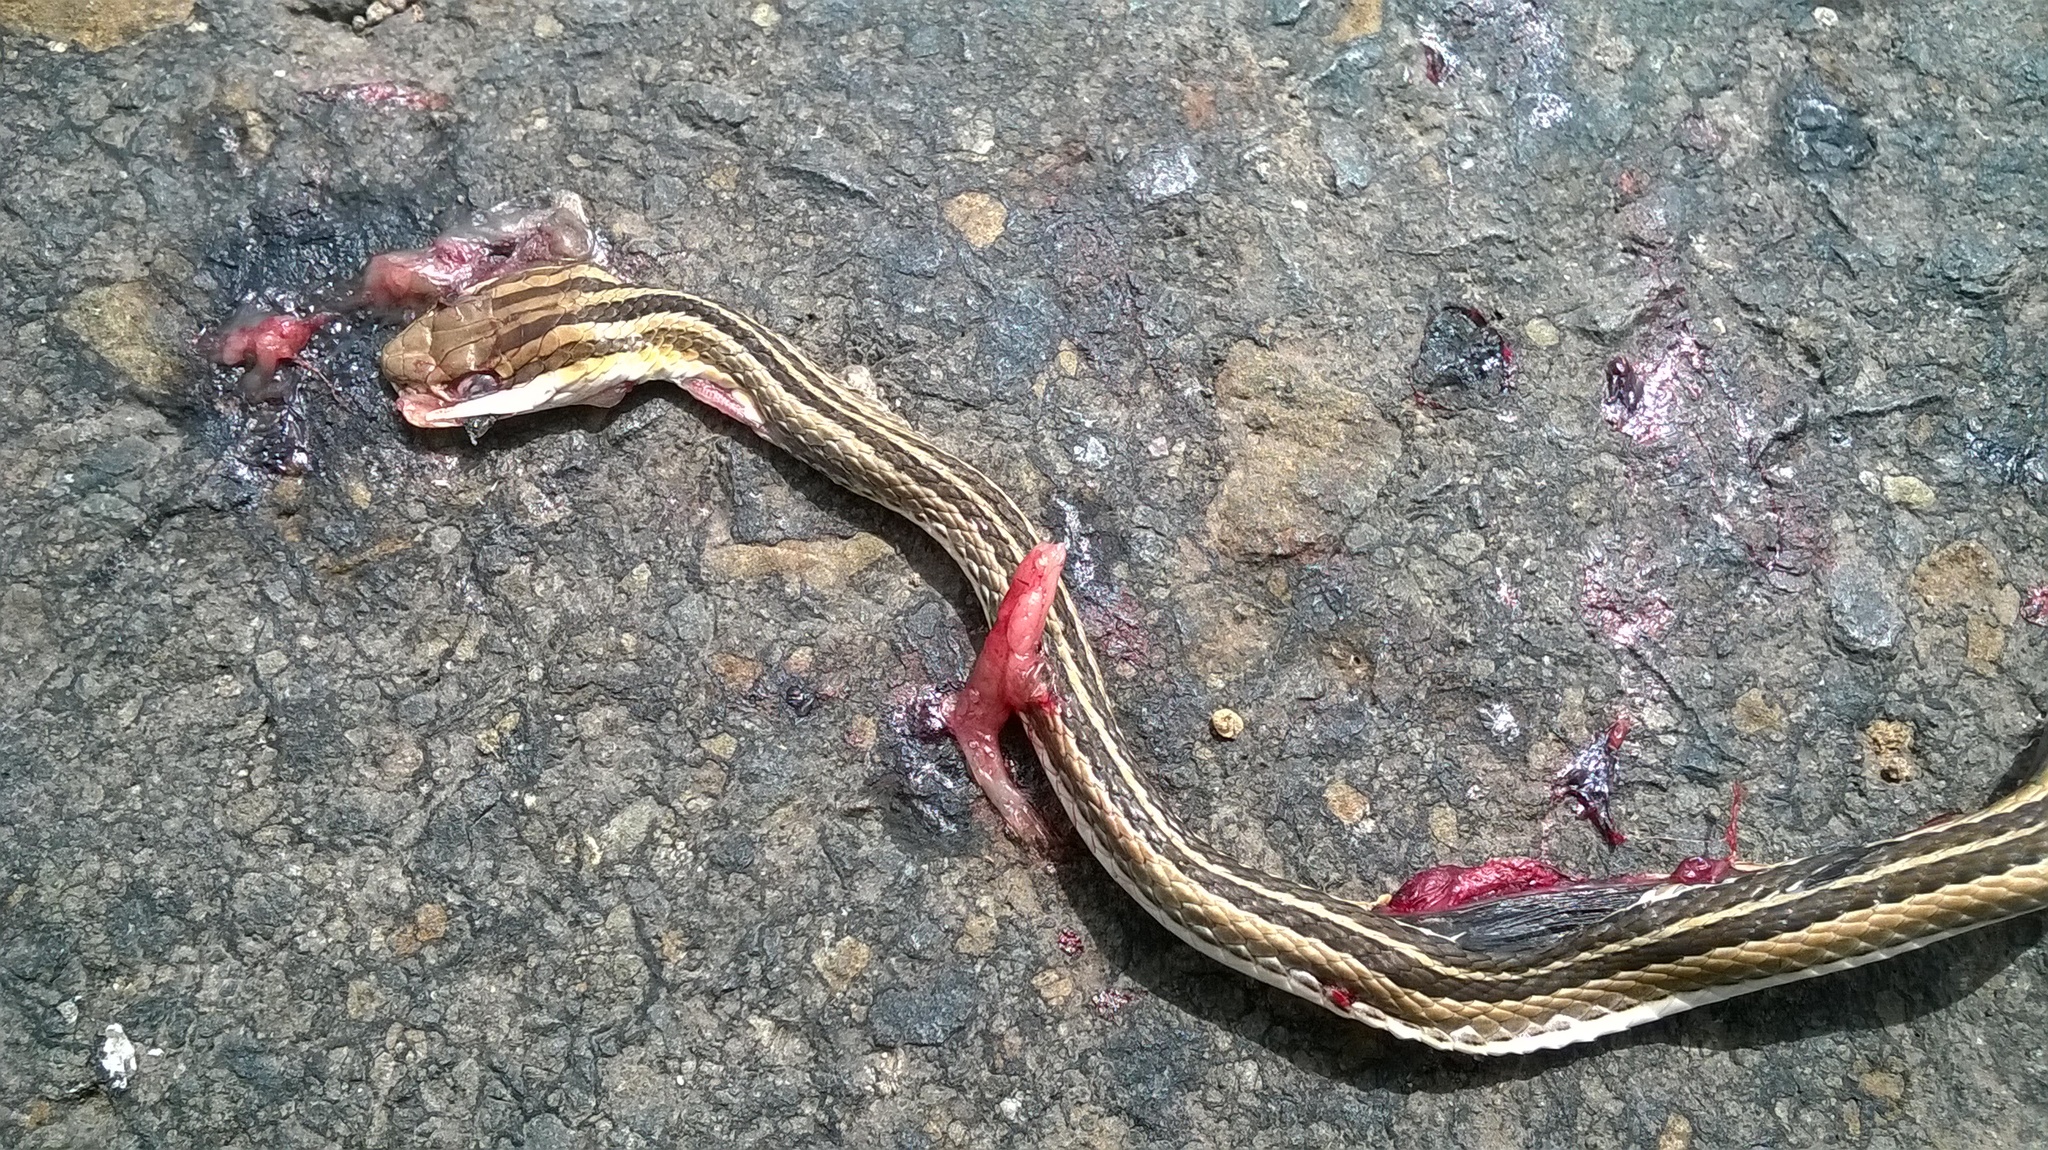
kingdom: Animalia
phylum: Chordata
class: Squamata
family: Psammophiidae
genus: Psammophis
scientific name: Psammophis leithii
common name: Leith's sand snake
